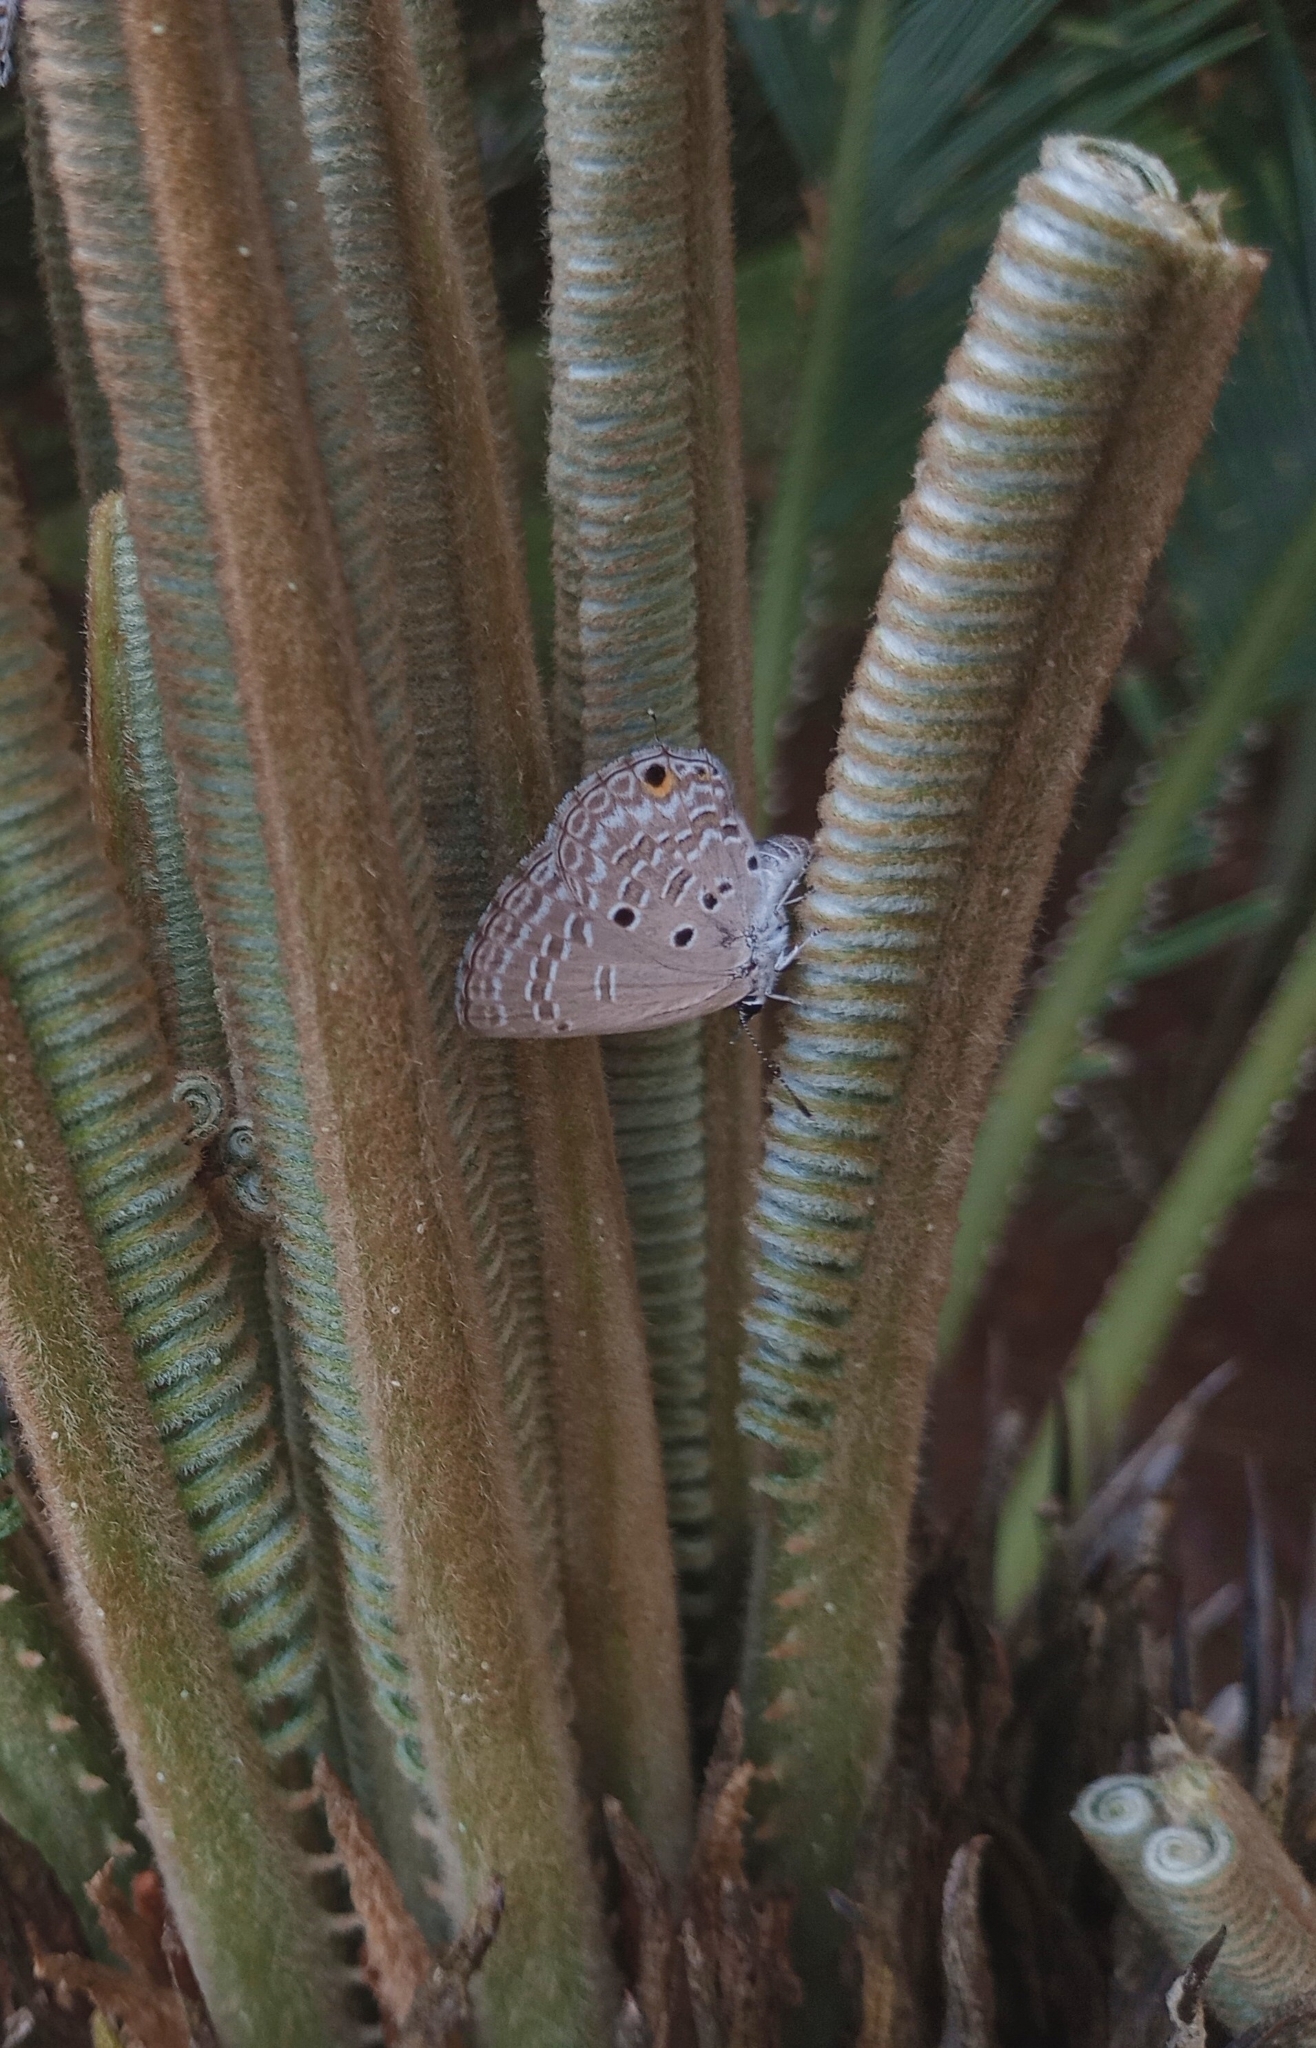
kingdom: Animalia
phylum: Arthropoda
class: Insecta
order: Lepidoptera
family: Lycaenidae
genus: Luthrodes
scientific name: Luthrodes pandava
